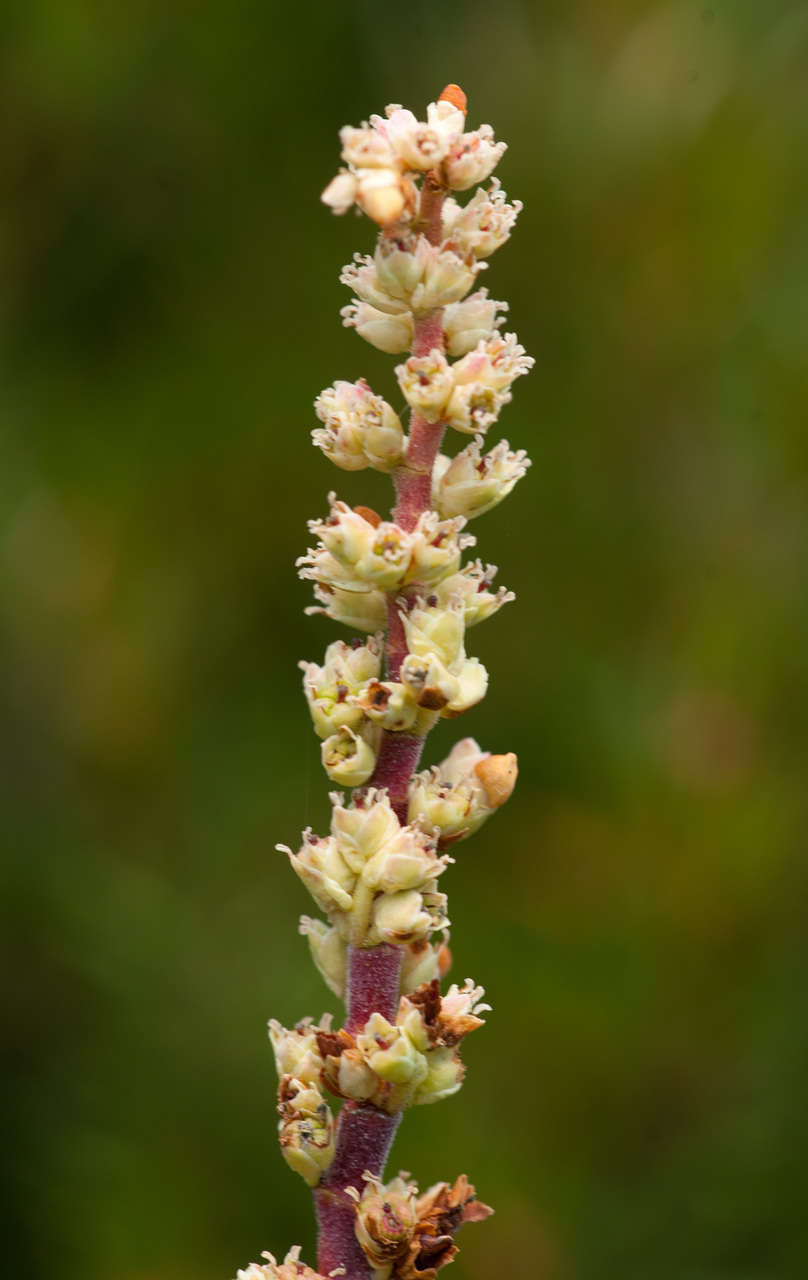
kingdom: Plantae
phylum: Tracheophyta
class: Magnoliopsida
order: Ericales
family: Ericaceae
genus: Dracophyllum
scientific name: Dracophyllum continentis
